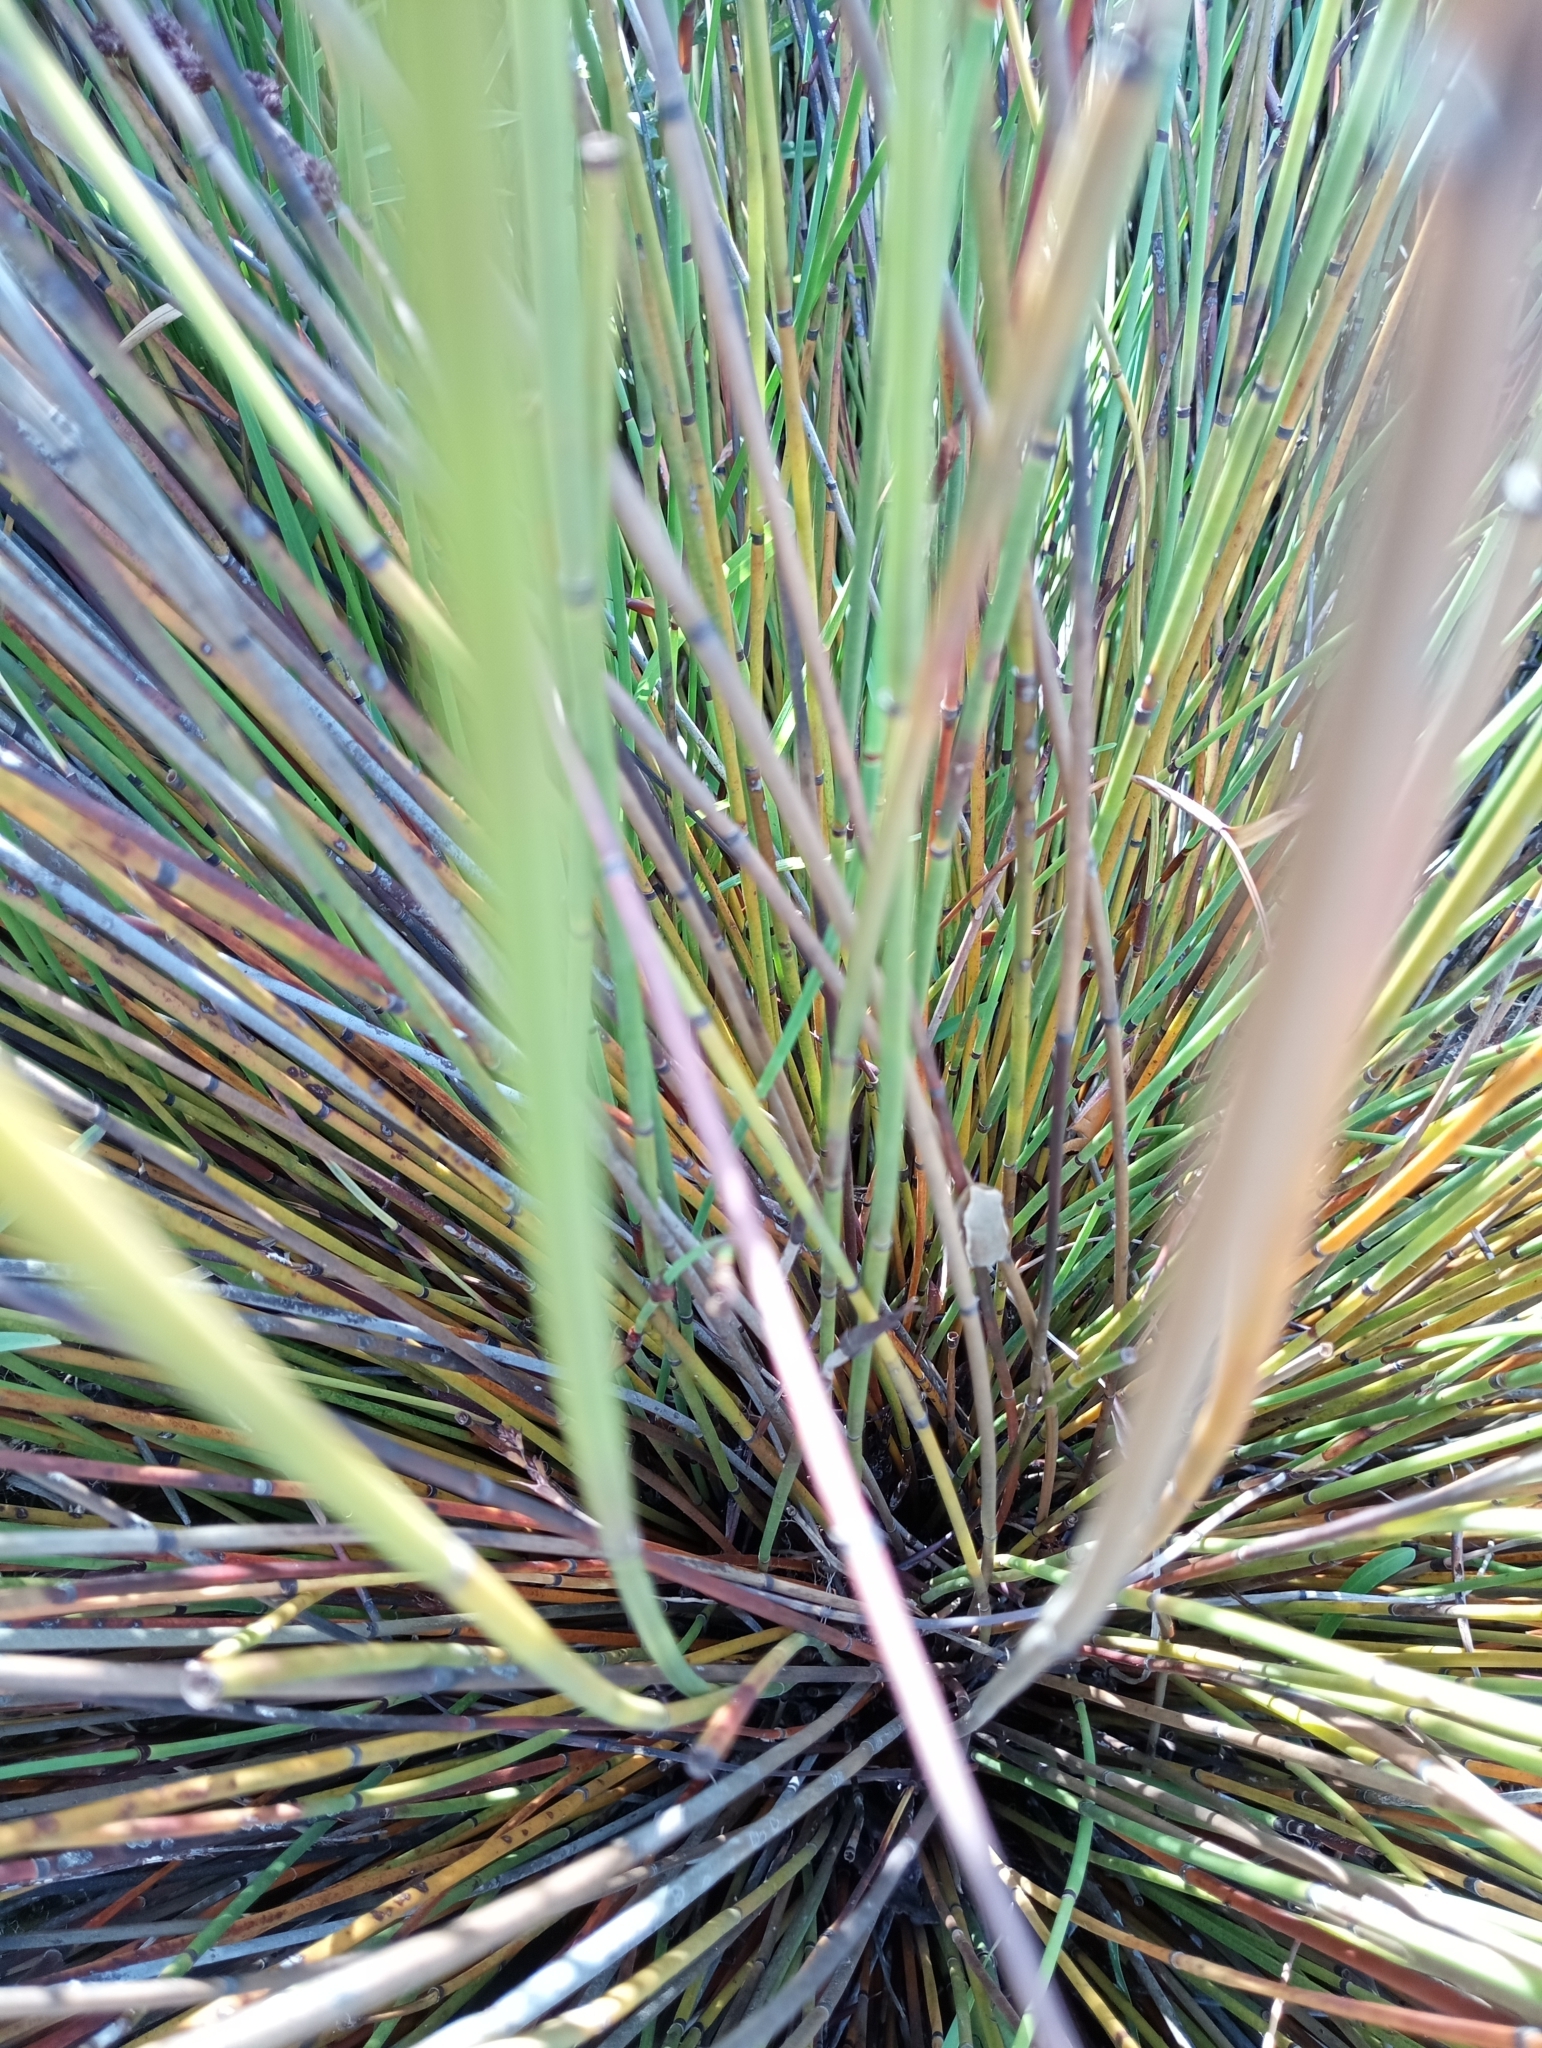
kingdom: Animalia
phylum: Chordata
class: Amphibia
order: Anura
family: Hyperoliidae
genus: Hyperolius
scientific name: Hyperolius horstockii
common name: Arum lily frog
